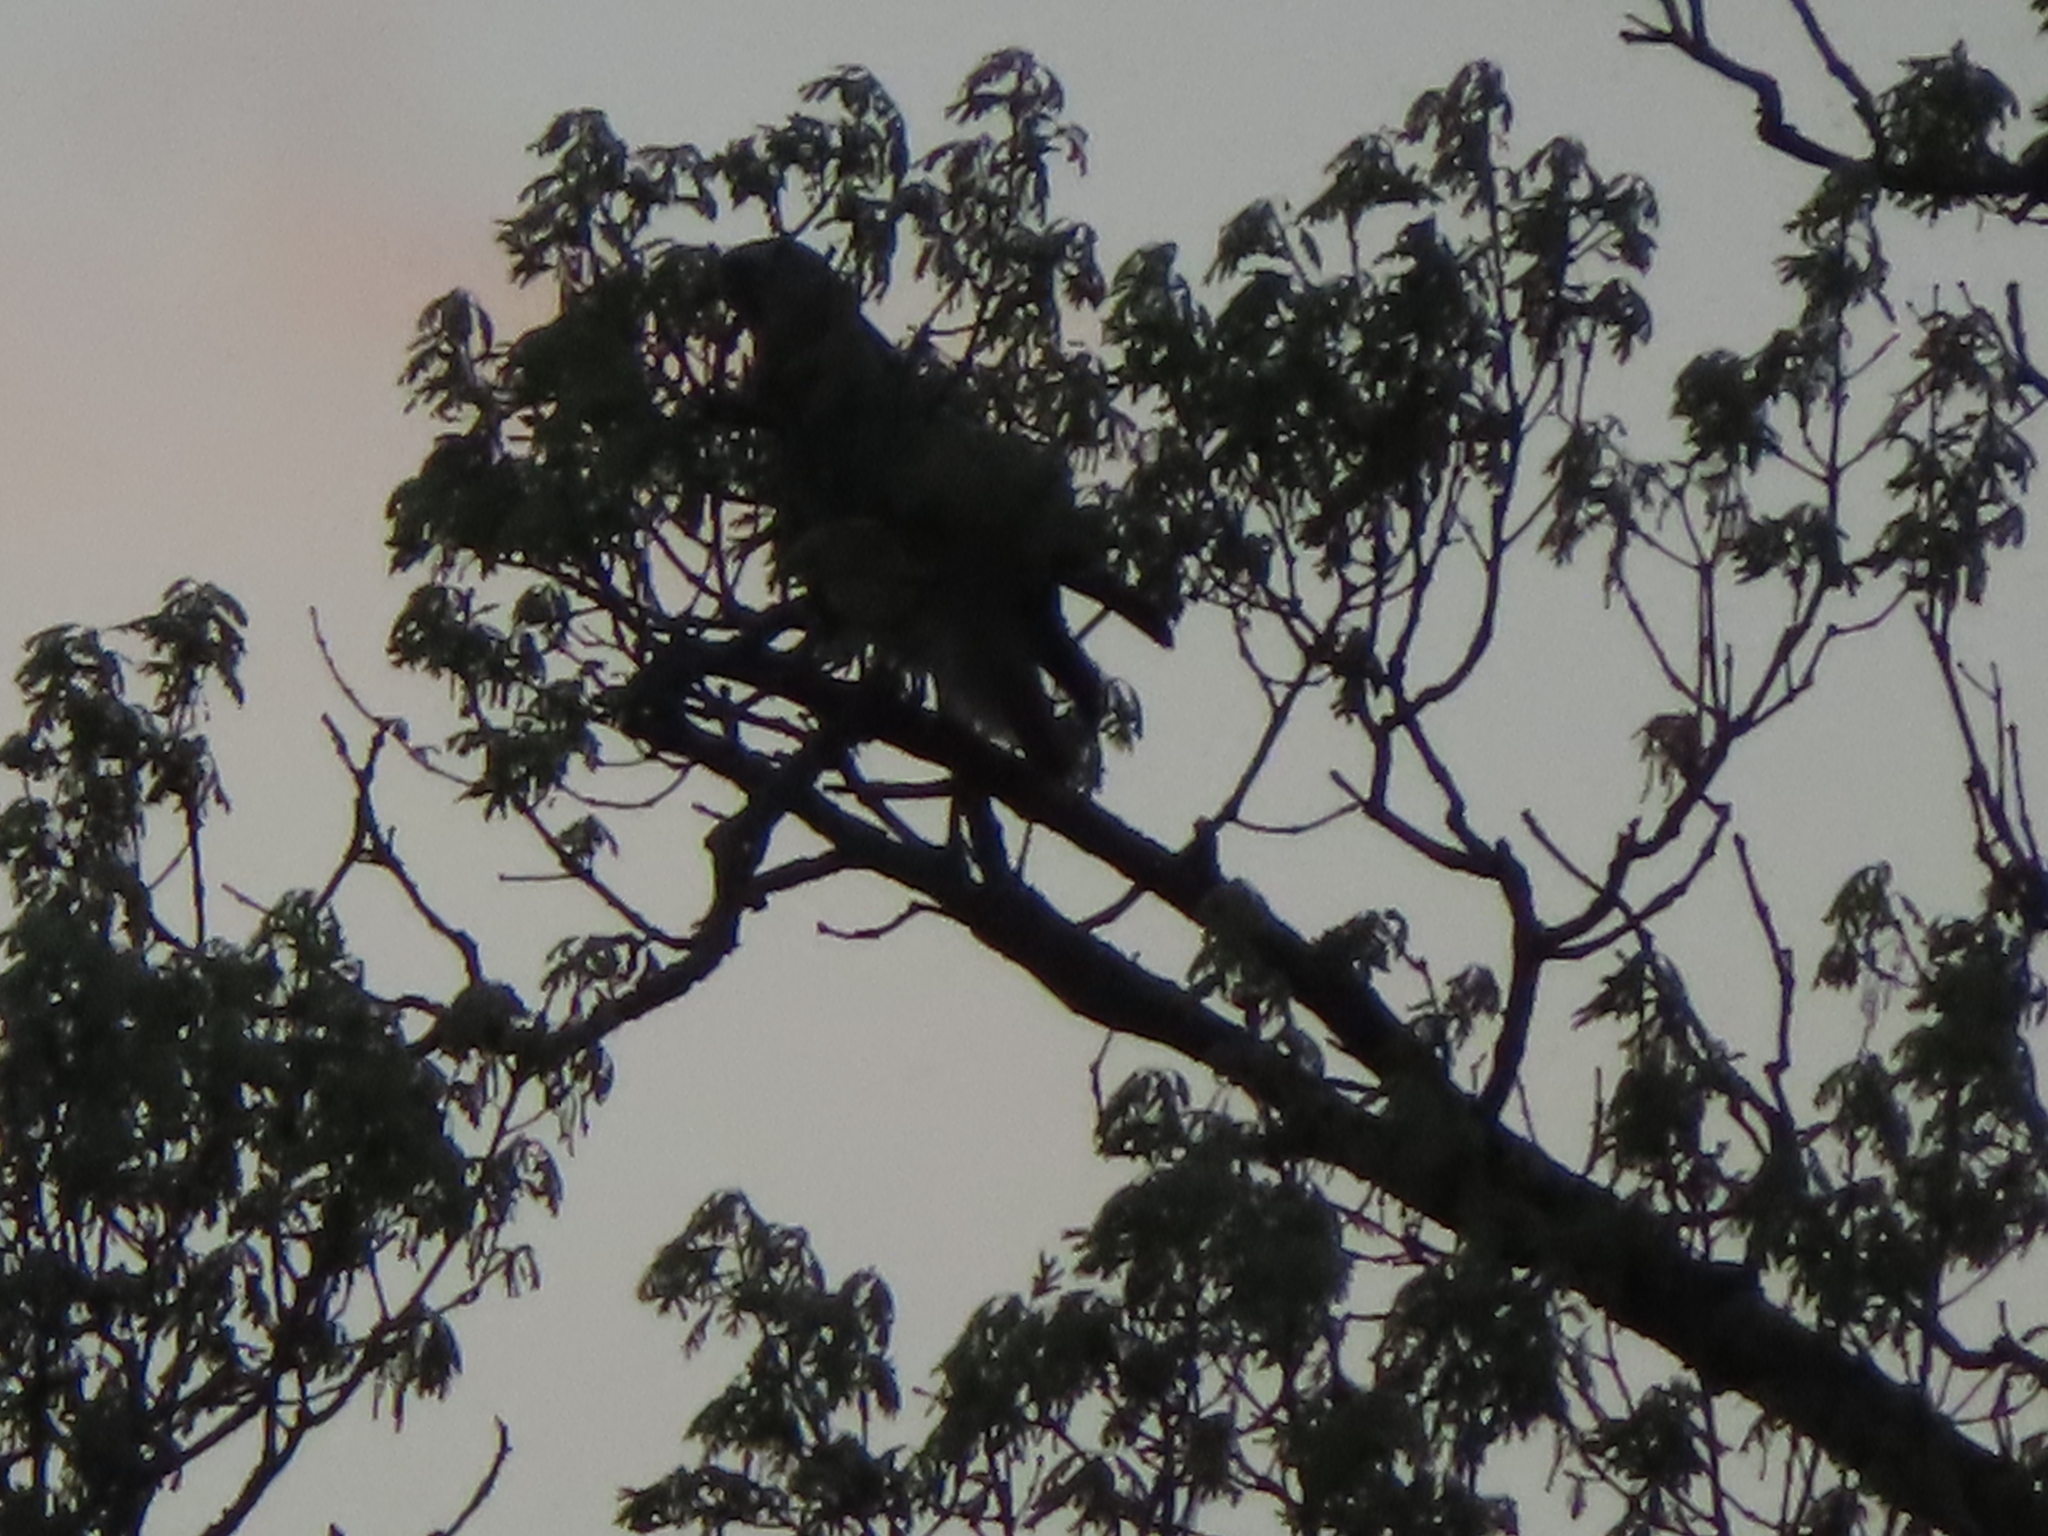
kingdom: Animalia
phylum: Chordata
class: Aves
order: Accipitriformes
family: Accipitridae
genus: Buteo
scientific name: Buteo jamaicensis
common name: Red-tailed hawk
